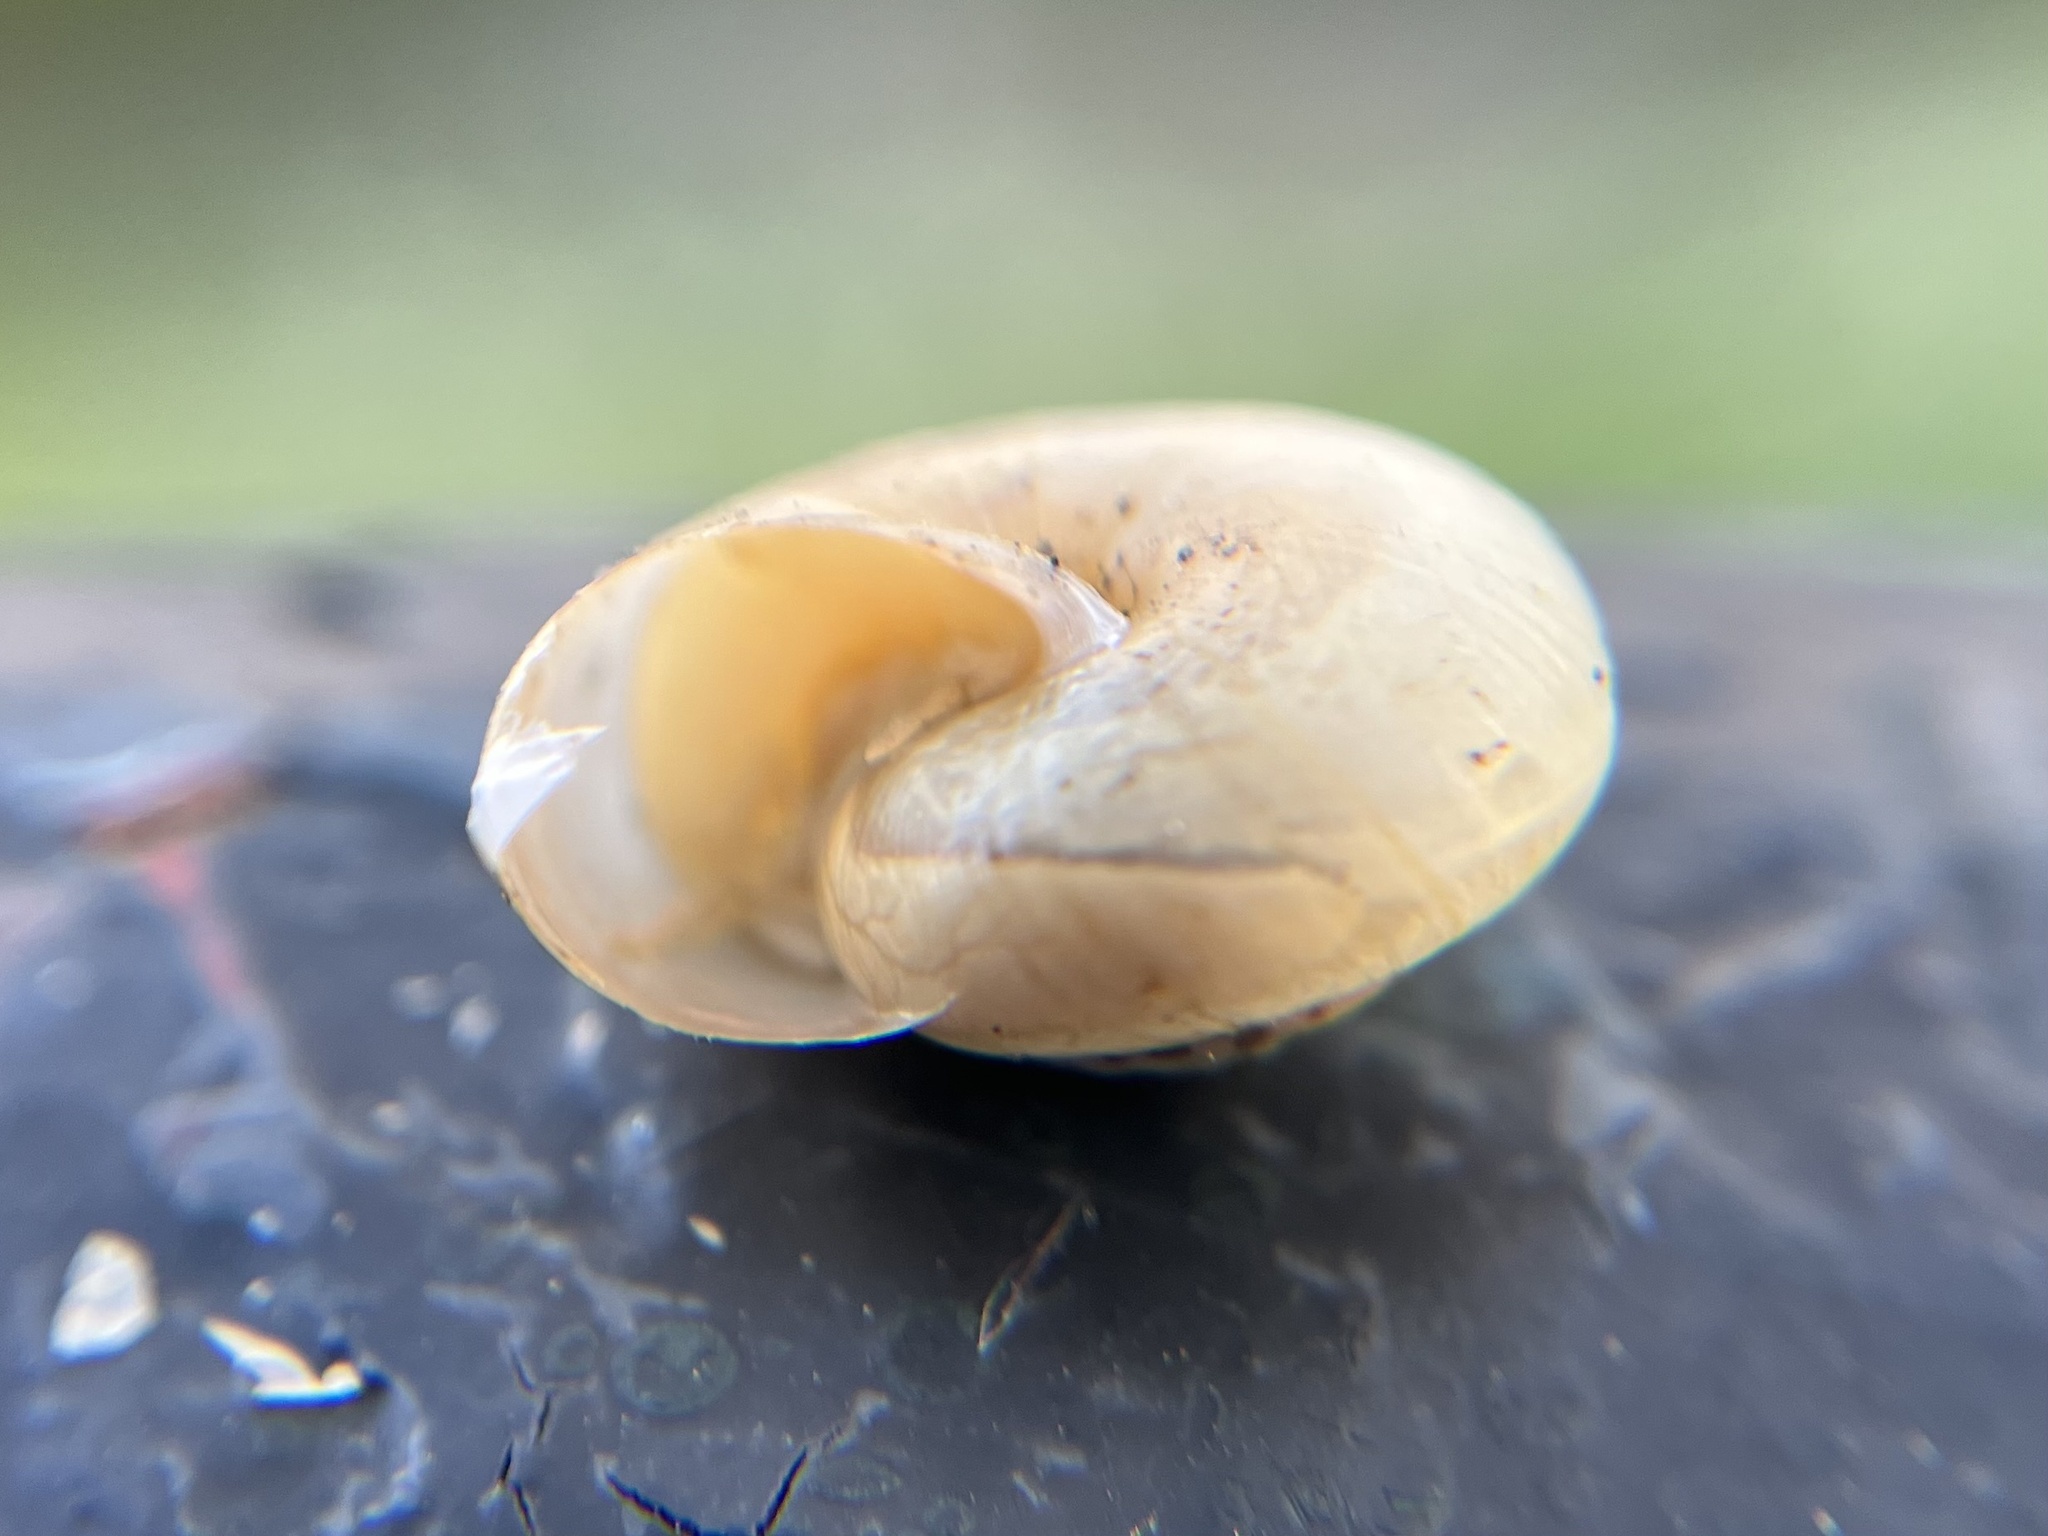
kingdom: Animalia
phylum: Mollusca
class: Gastropoda
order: Stylommatophora
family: Hygromiidae
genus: Monacha
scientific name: Monacha cartusiana
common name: Carthusian snail
